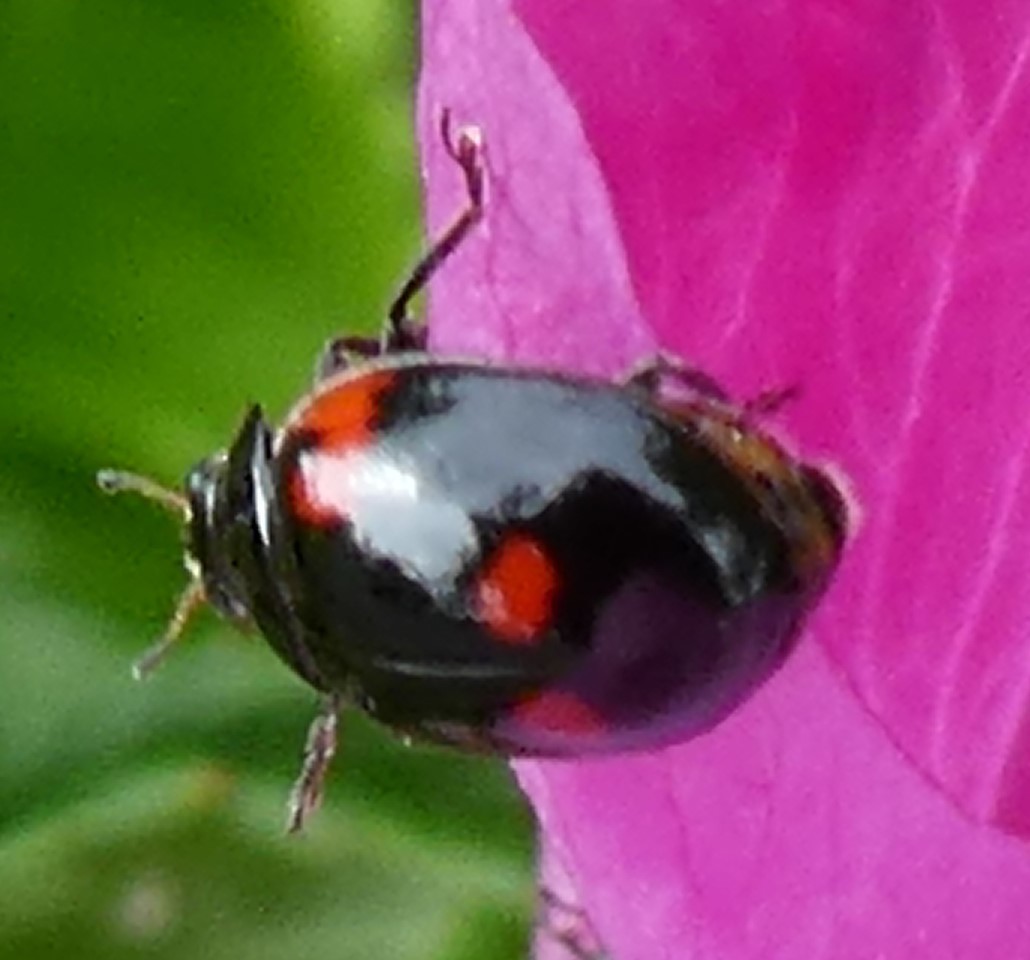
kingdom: Animalia
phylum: Arthropoda
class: Insecta
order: Coleoptera
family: Coccinellidae
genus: Adalia
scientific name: Adalia bipunctata
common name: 2-spot ladybird
